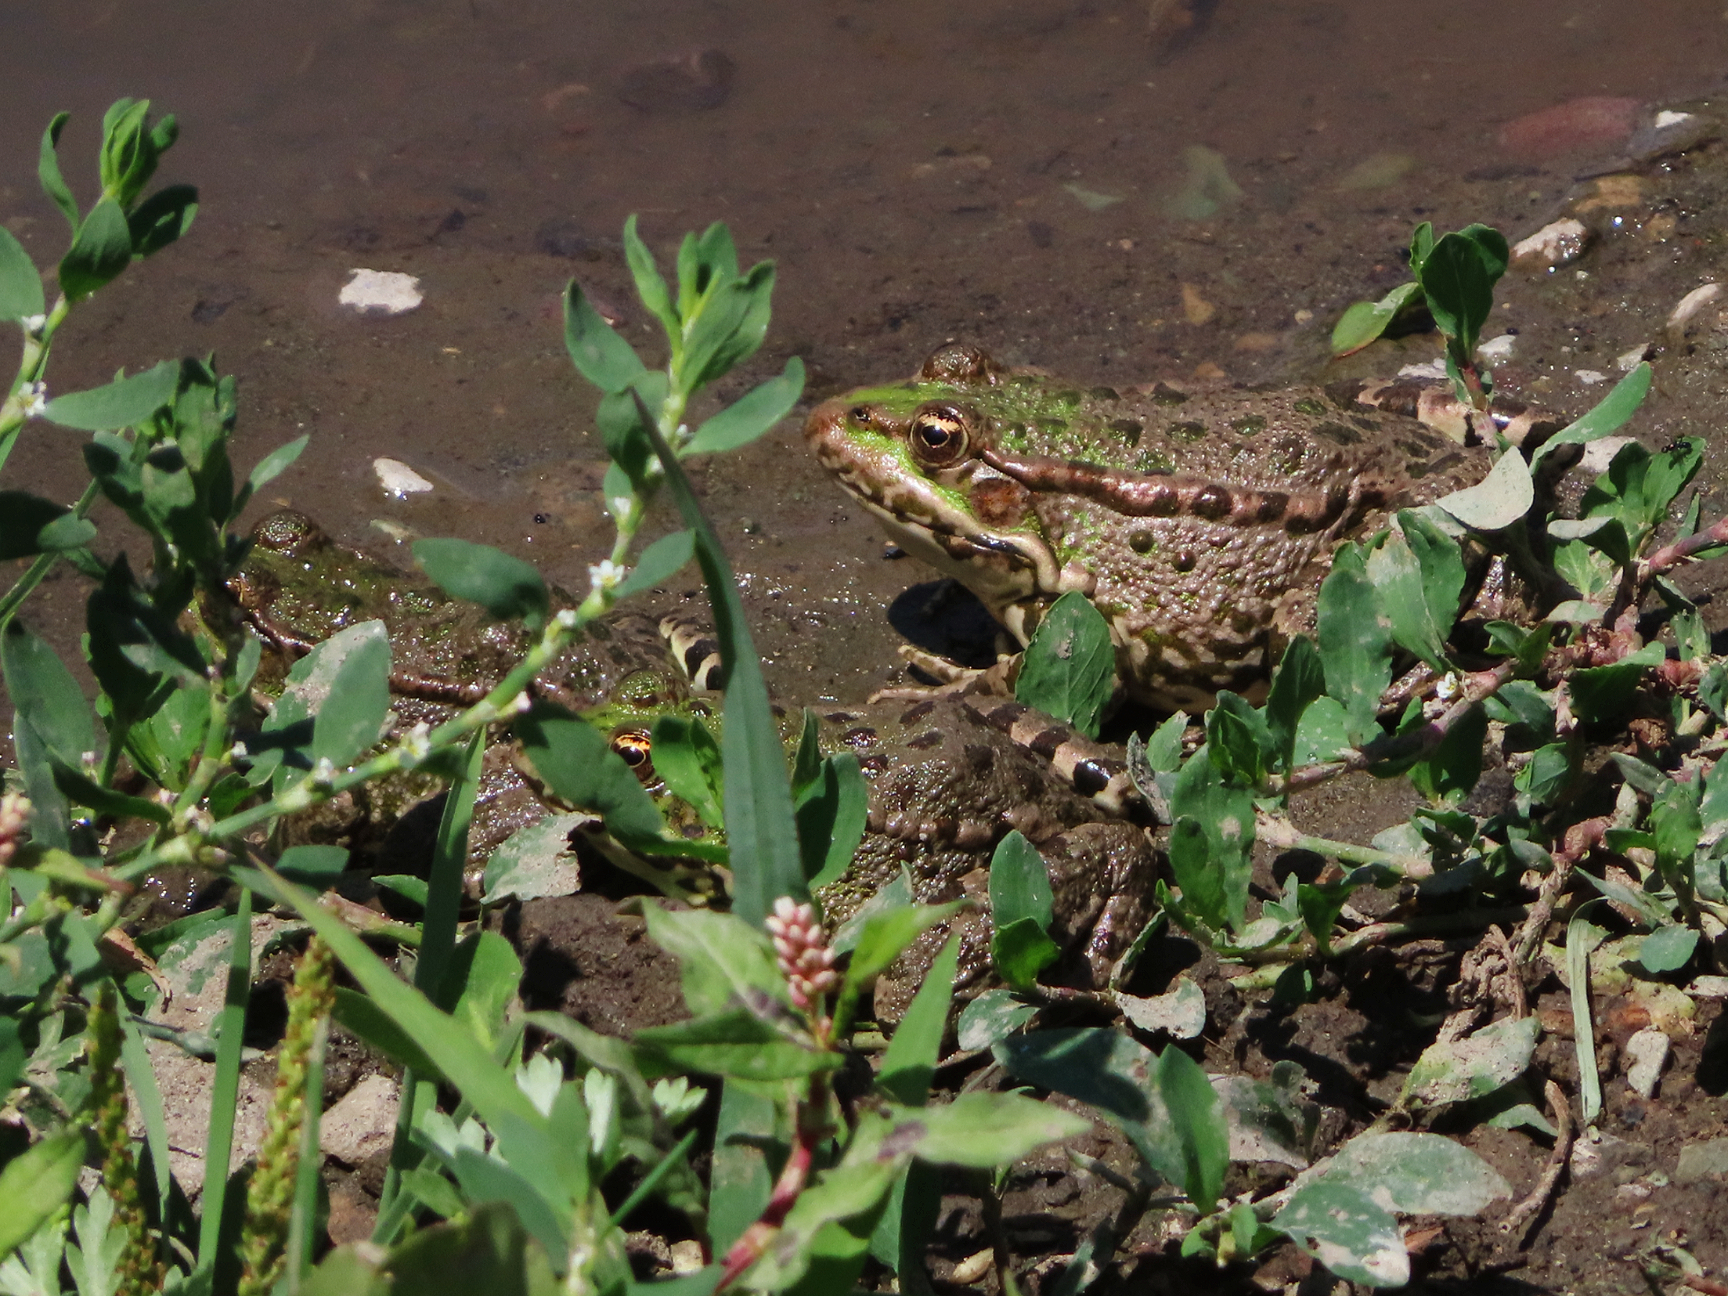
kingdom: Animalia
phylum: Chordata
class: Amphibia
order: Anura
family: Ranidae
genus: Pelophylax
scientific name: Pelophylax ridibundus
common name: Marsh frog
